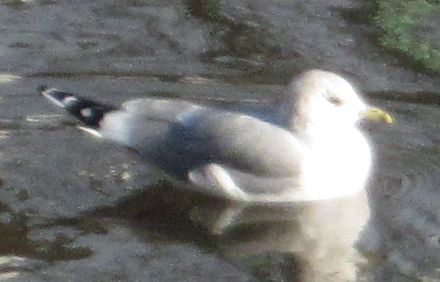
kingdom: Animalia
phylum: Chordata
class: Aves
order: Charadriiformes
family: Laridae
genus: Larus
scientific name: Larus canus
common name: Mew gull
